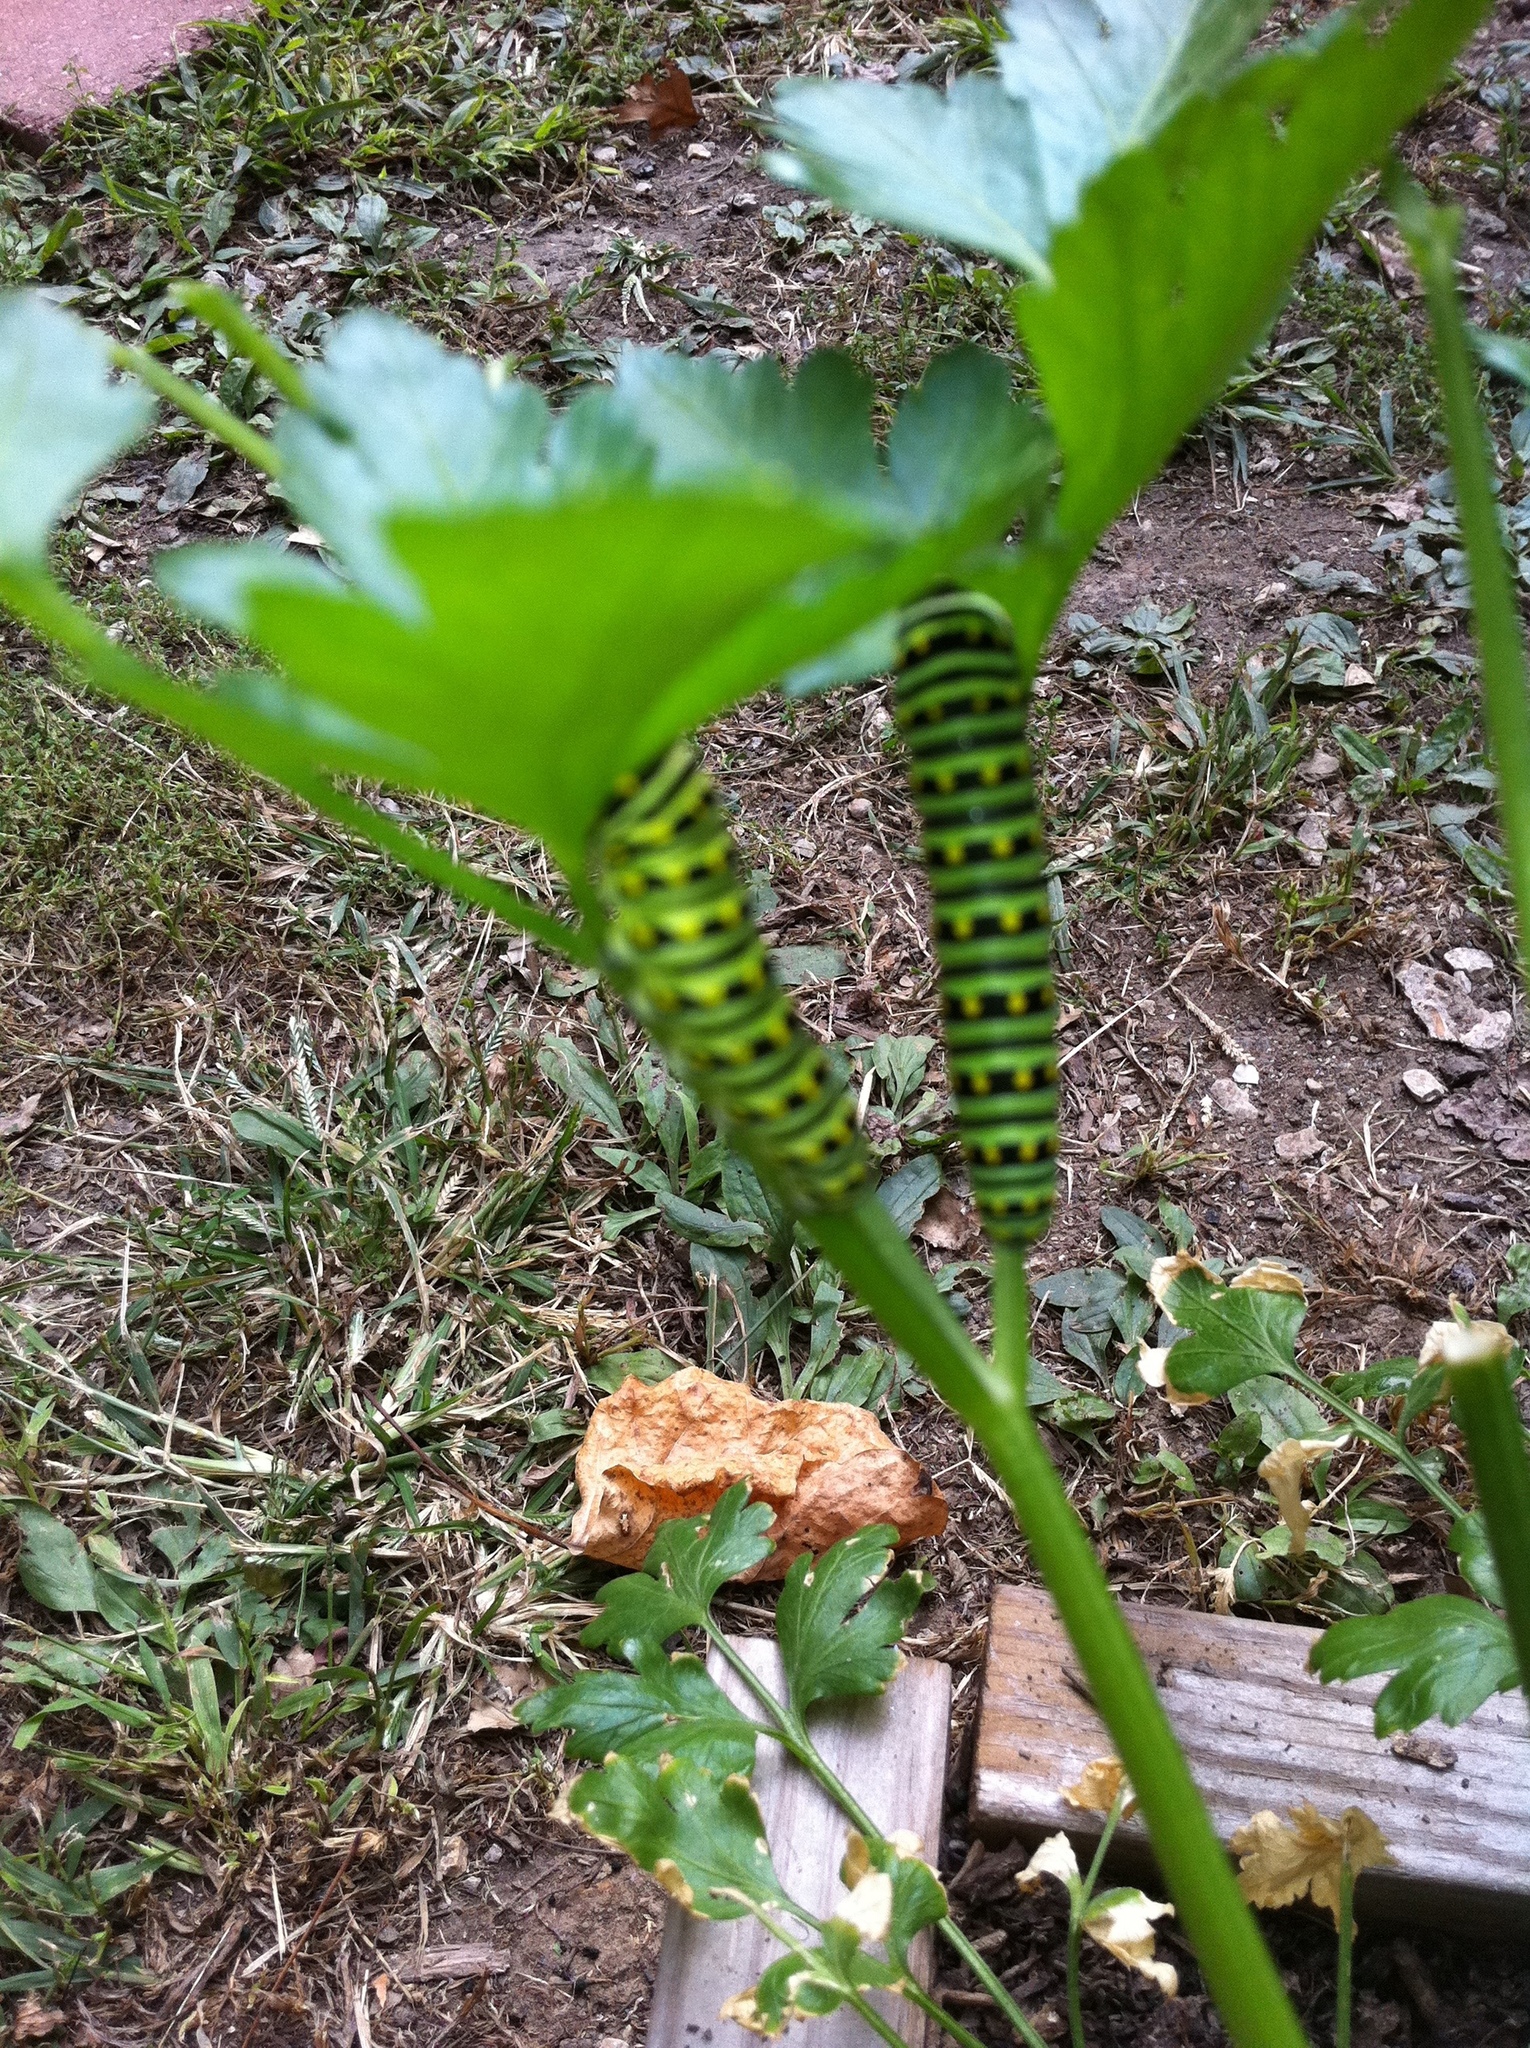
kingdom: Animalia
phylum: Arthropoda
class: Insecta
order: Lepidoptera
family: Papilionidae
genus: Papilio
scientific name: Papilio polyxenes
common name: Black swallowtail
